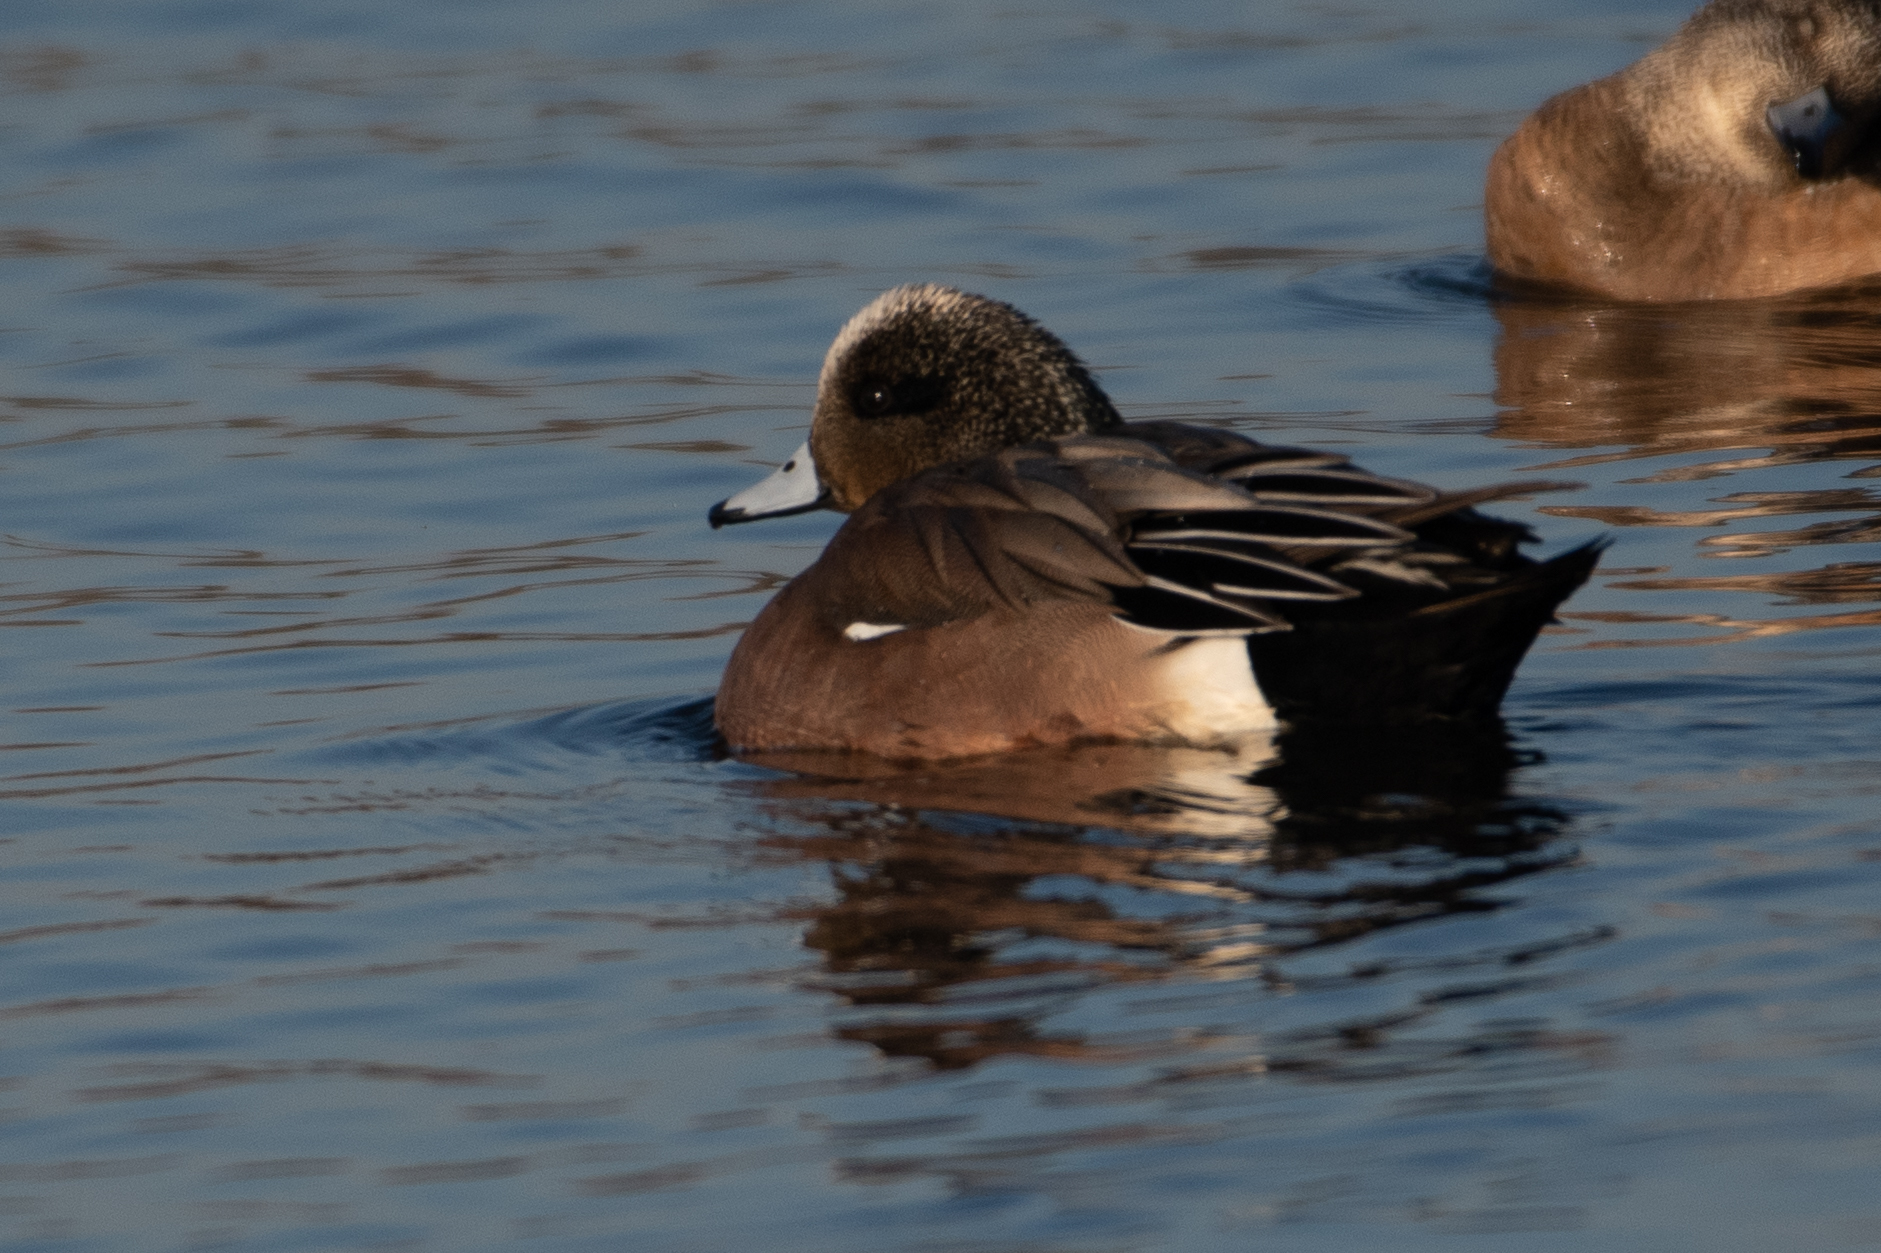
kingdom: Animalia
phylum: Chordata
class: Aves
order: Anseriformes
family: Anatidae
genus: Mareca
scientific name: Mareca americana
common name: American wigeon
